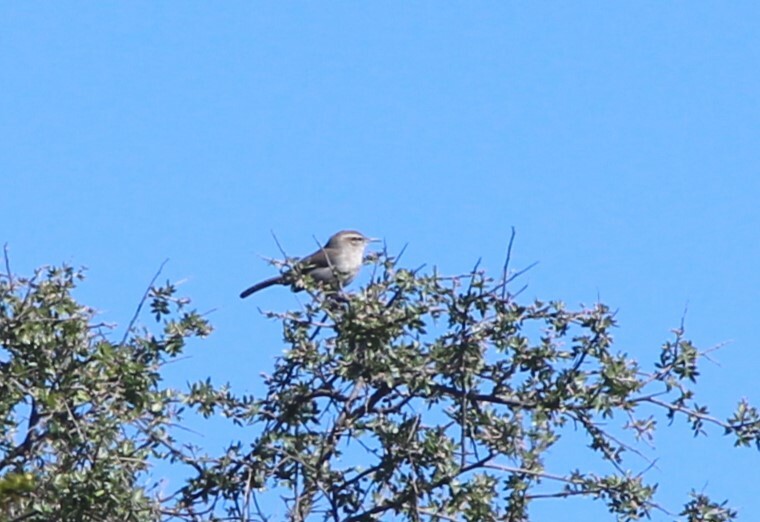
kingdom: Animalia
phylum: Chordata
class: Aves
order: Passeriformes
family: Troglodytidae
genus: Thryomanes
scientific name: Thryomanes bewickii
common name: Bewick's wren
